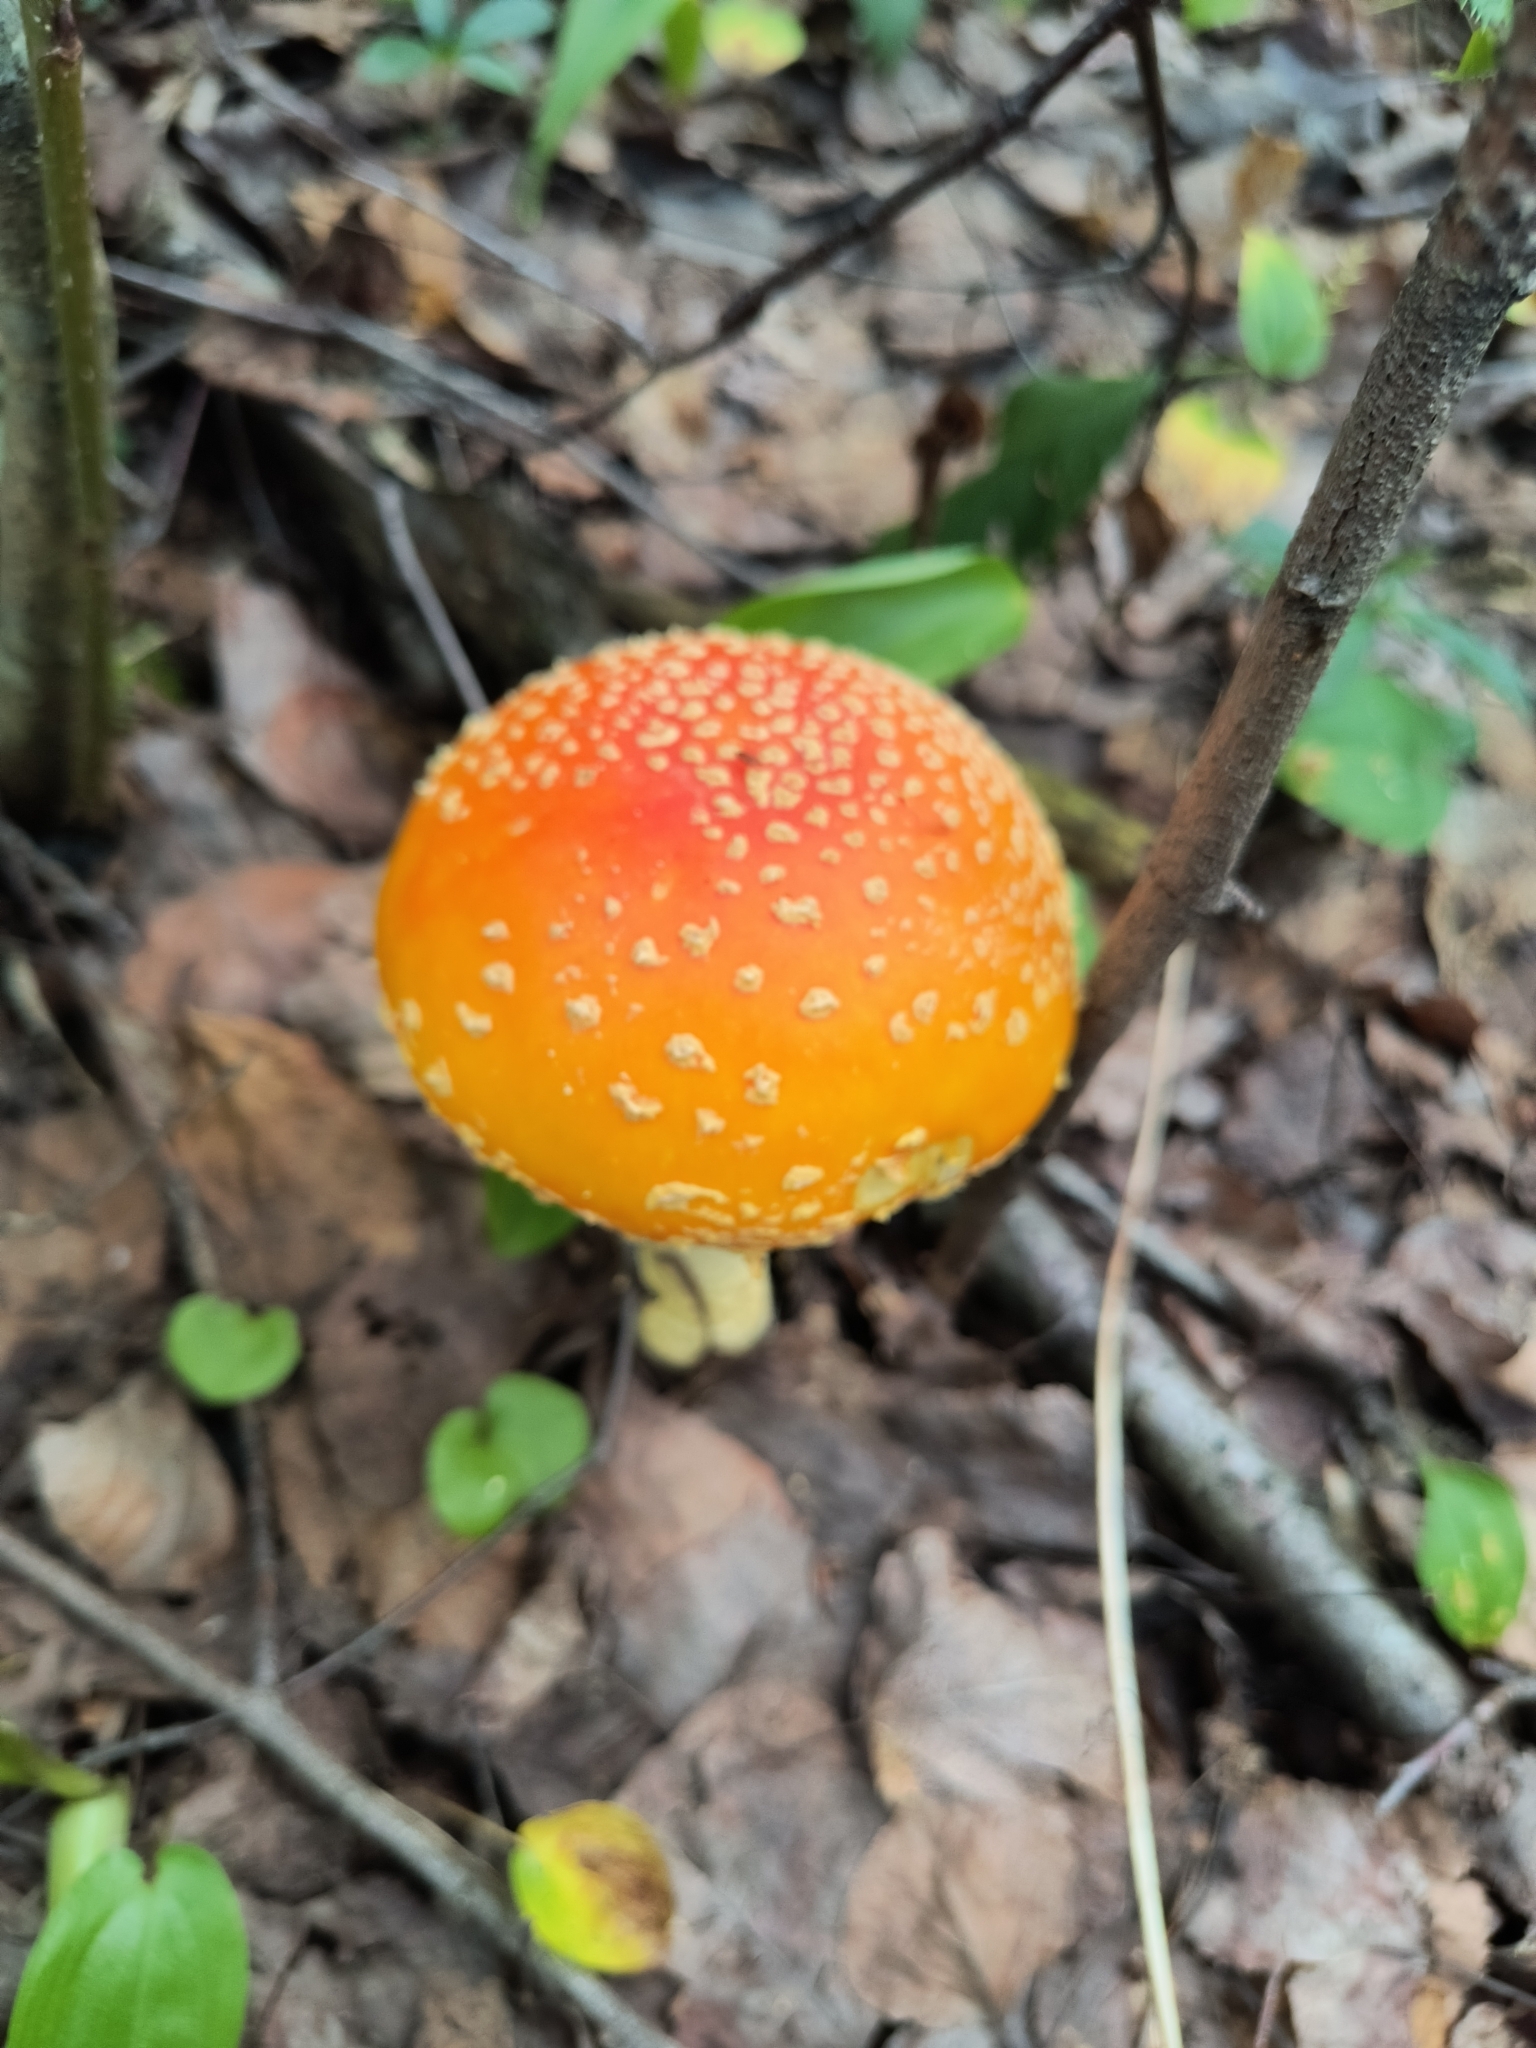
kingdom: Fungi
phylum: Basidiomycota
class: Agaricomycetes
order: Agaricales
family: Amanitaceae
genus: Amanita
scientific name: Amanita muscaria
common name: Fly agaric
